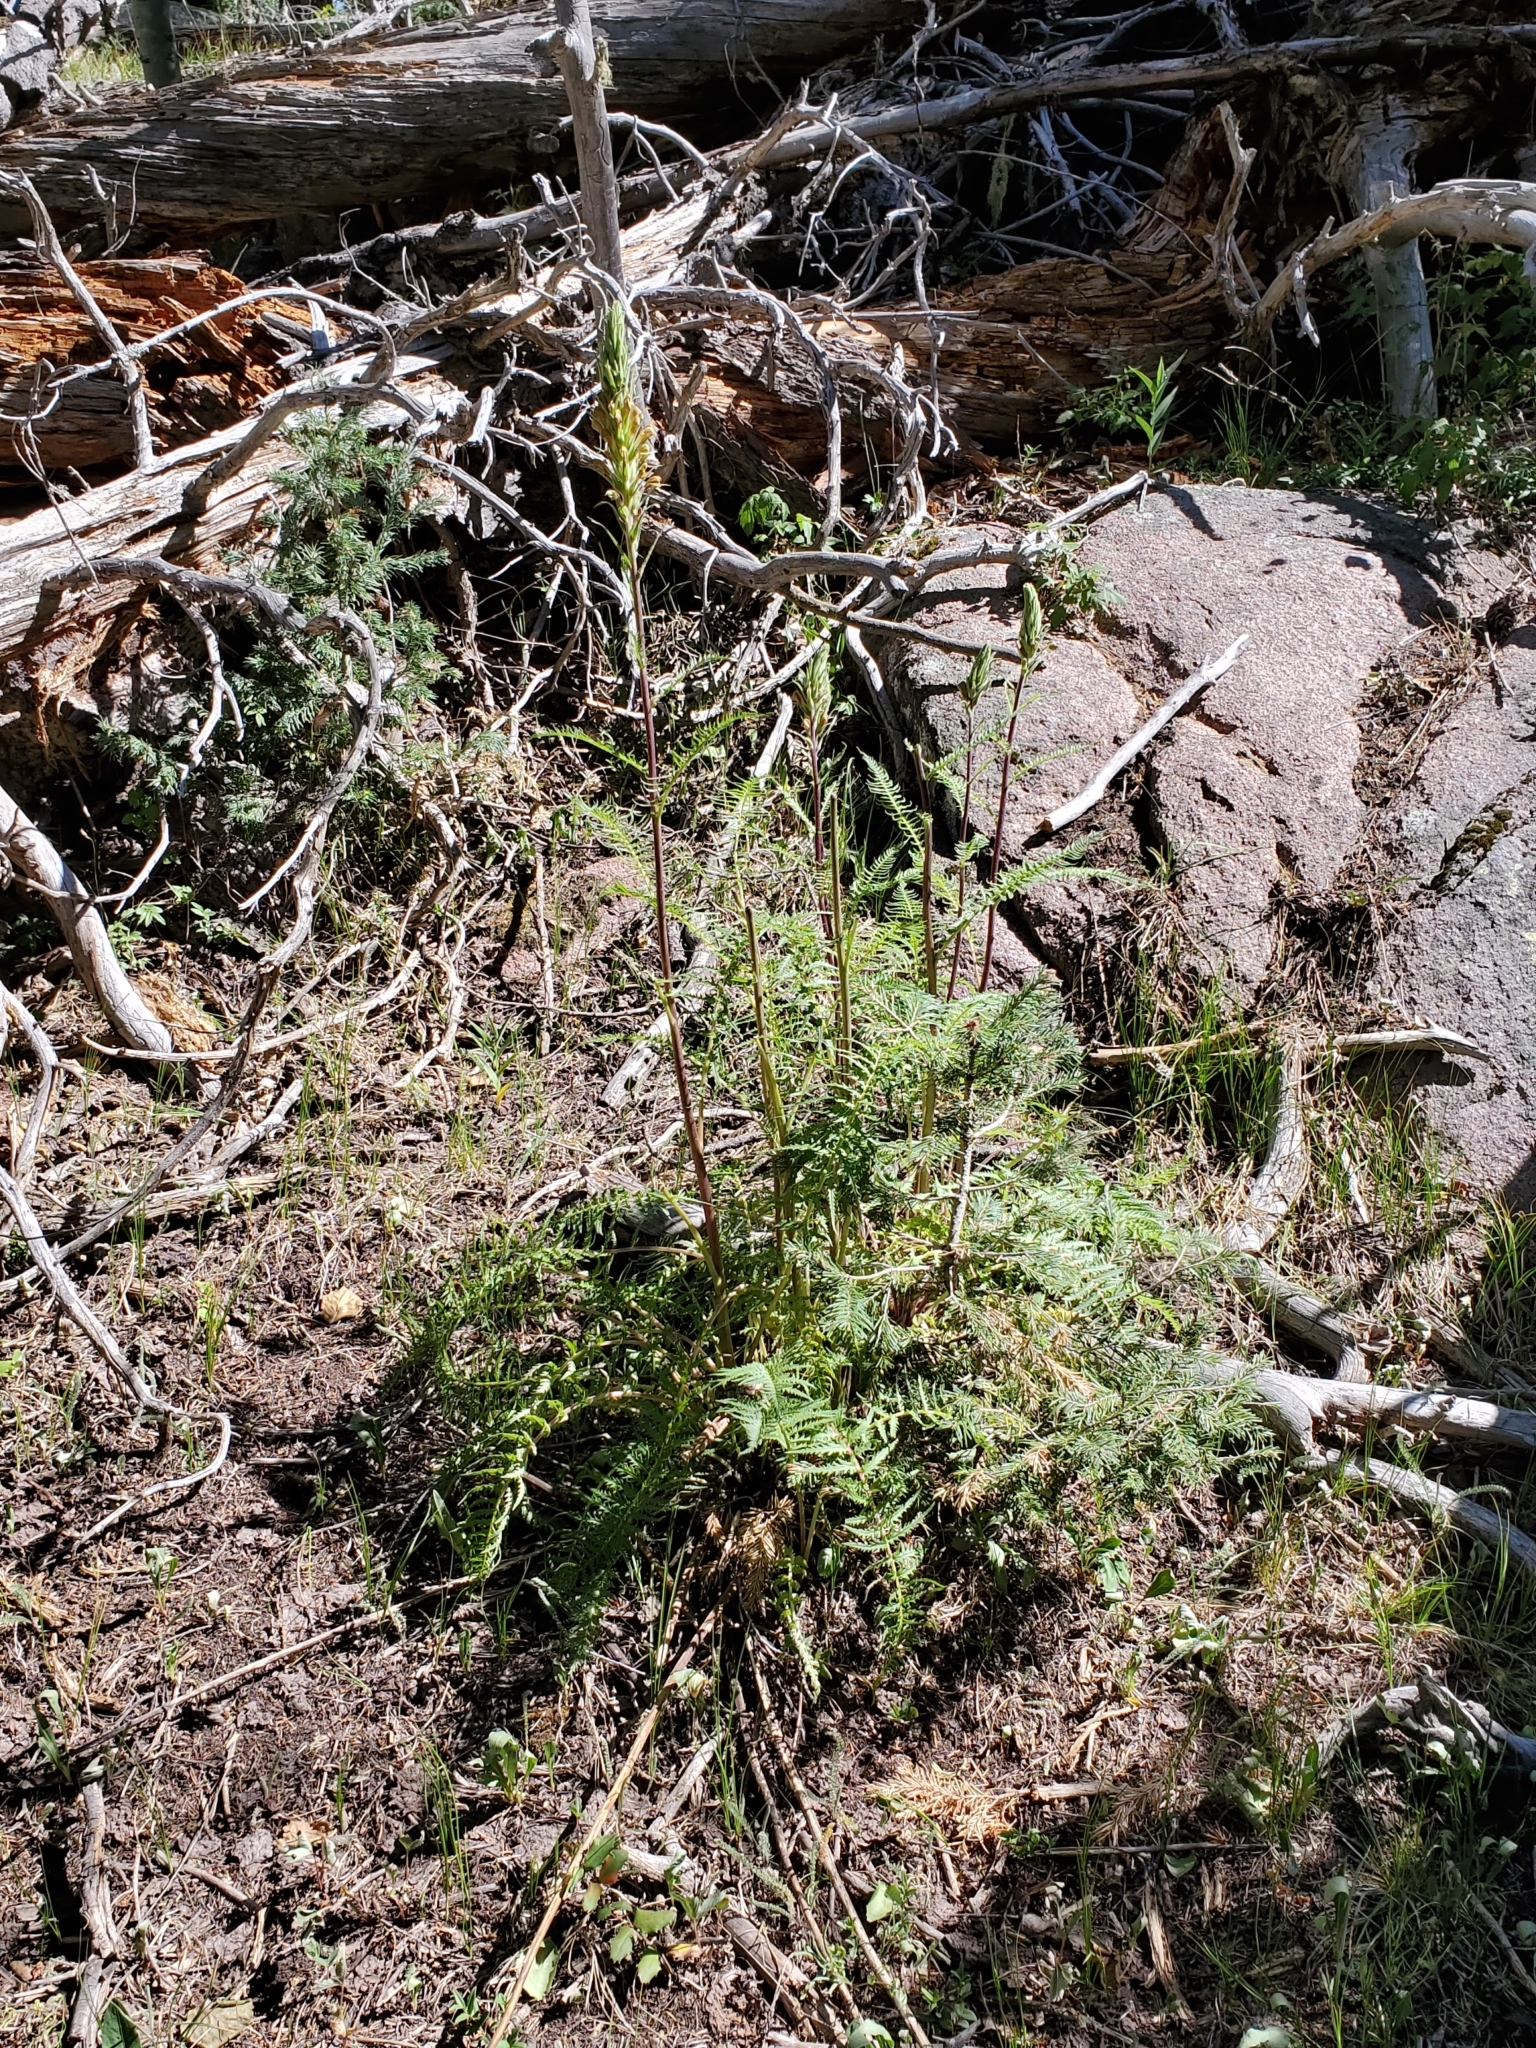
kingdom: Plantae
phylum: Tracheophyta
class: Magnoliopsida
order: Lamiales
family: Orobanchaceae
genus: Pedicularis
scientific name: Pedicularis procera
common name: Gray's lousewort
